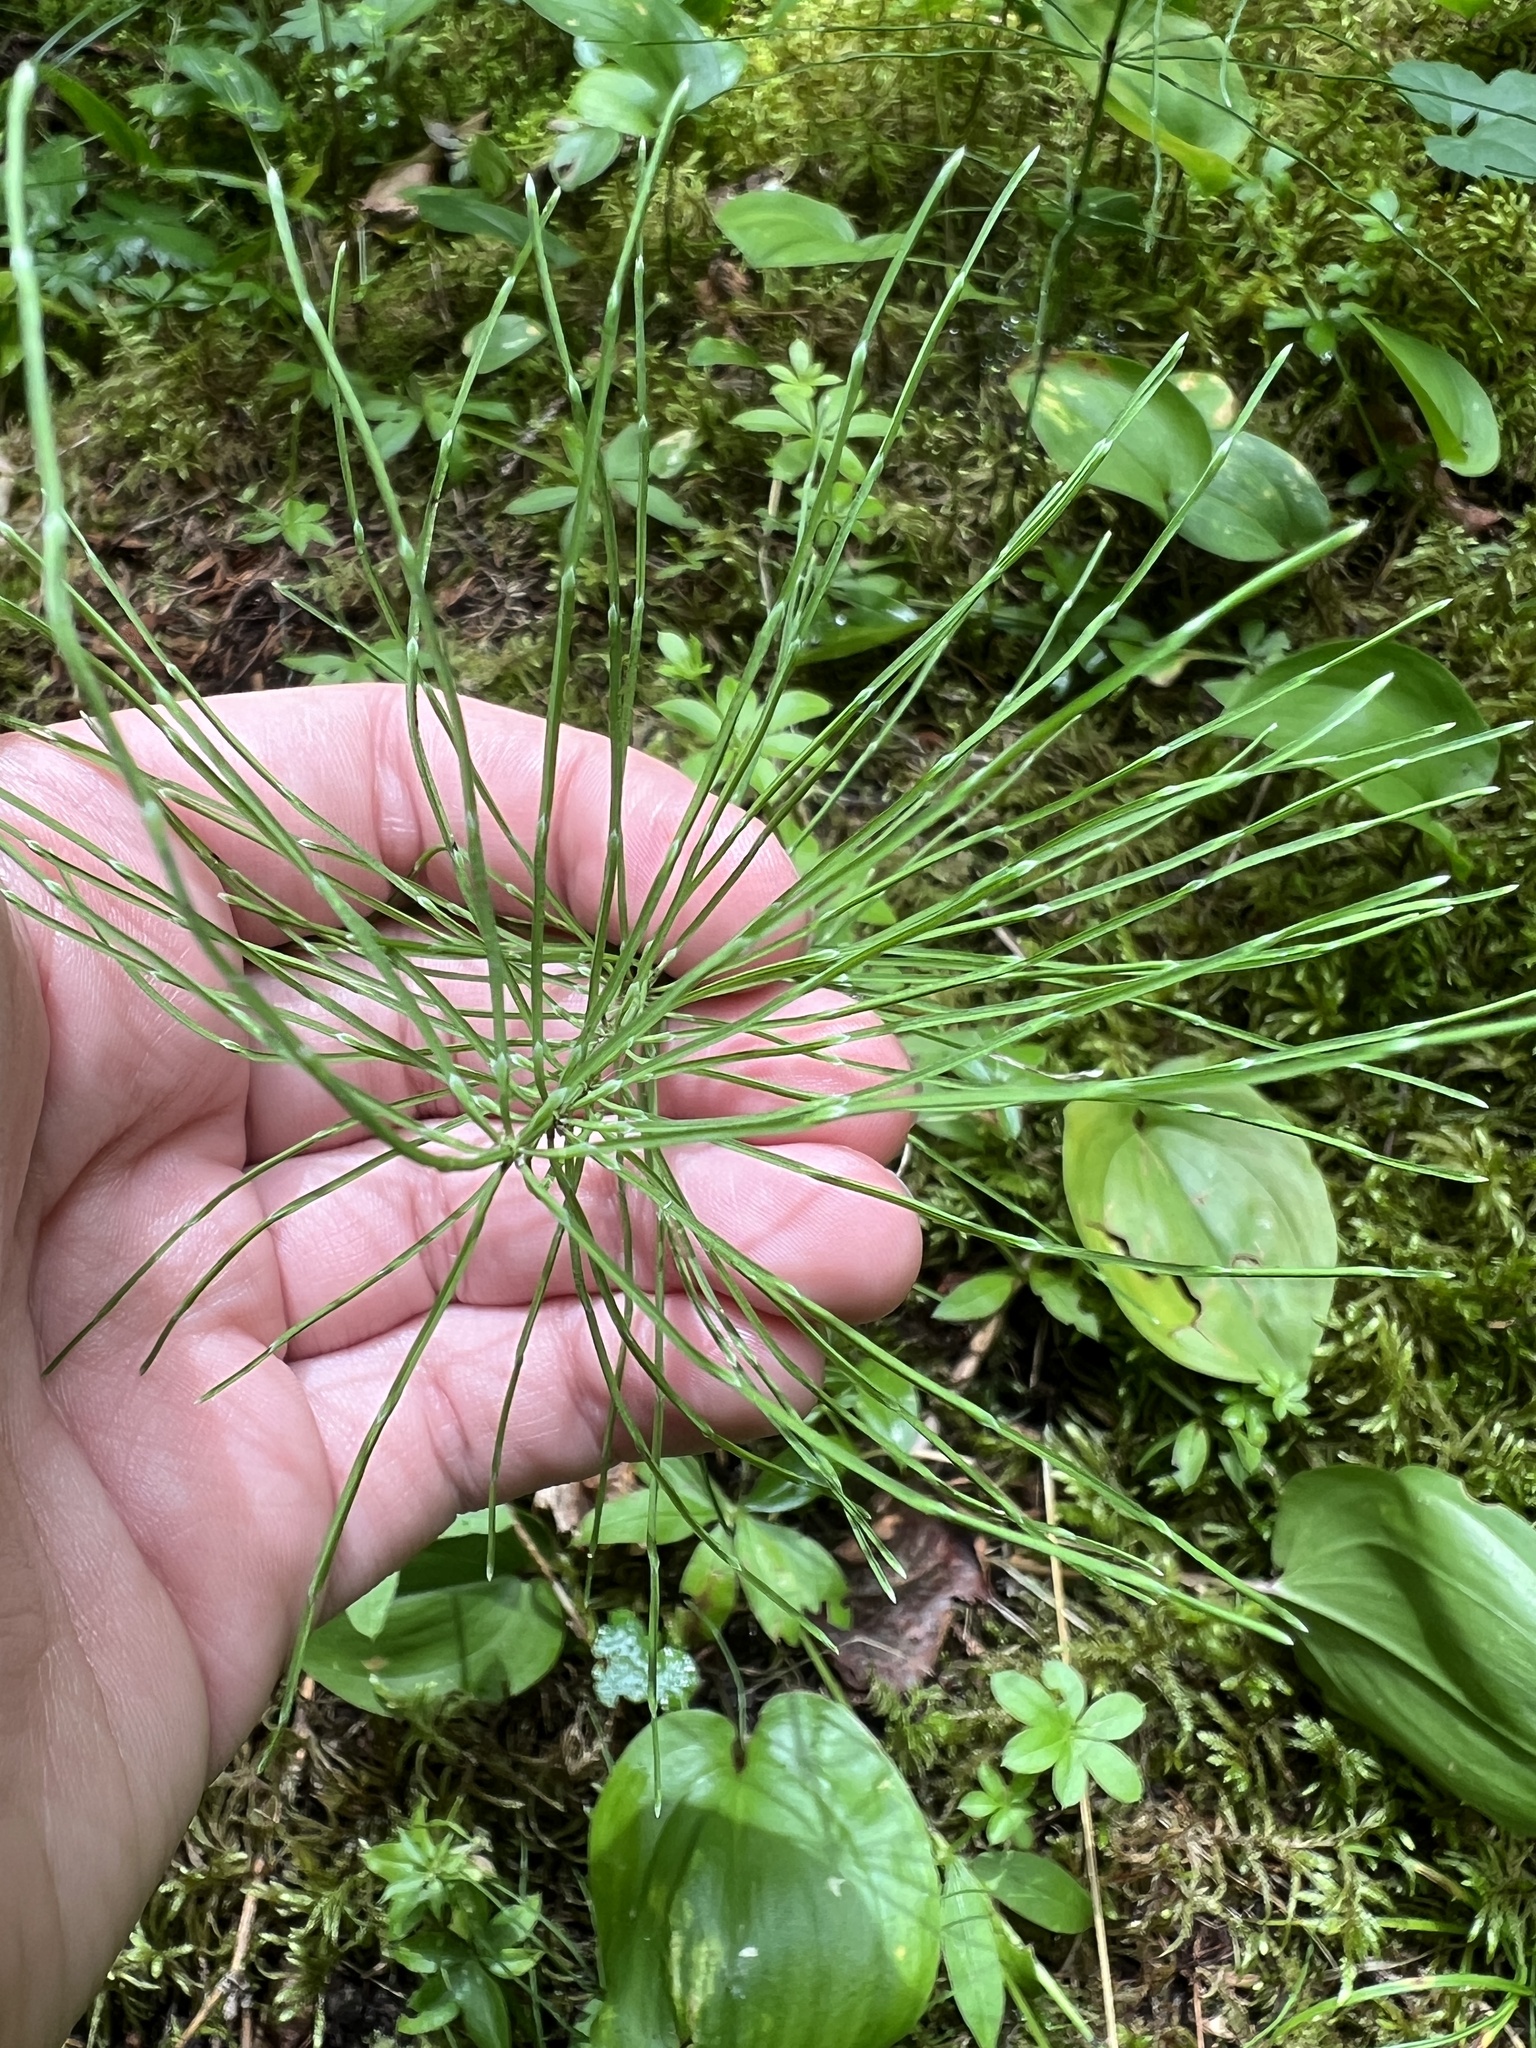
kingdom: Plantae
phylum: Tracheophyta
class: Polypodiopsida
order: Equisetales
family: Equisetaceae
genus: Equisetum
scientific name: Equisetum pratense
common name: Meadow horsetail
